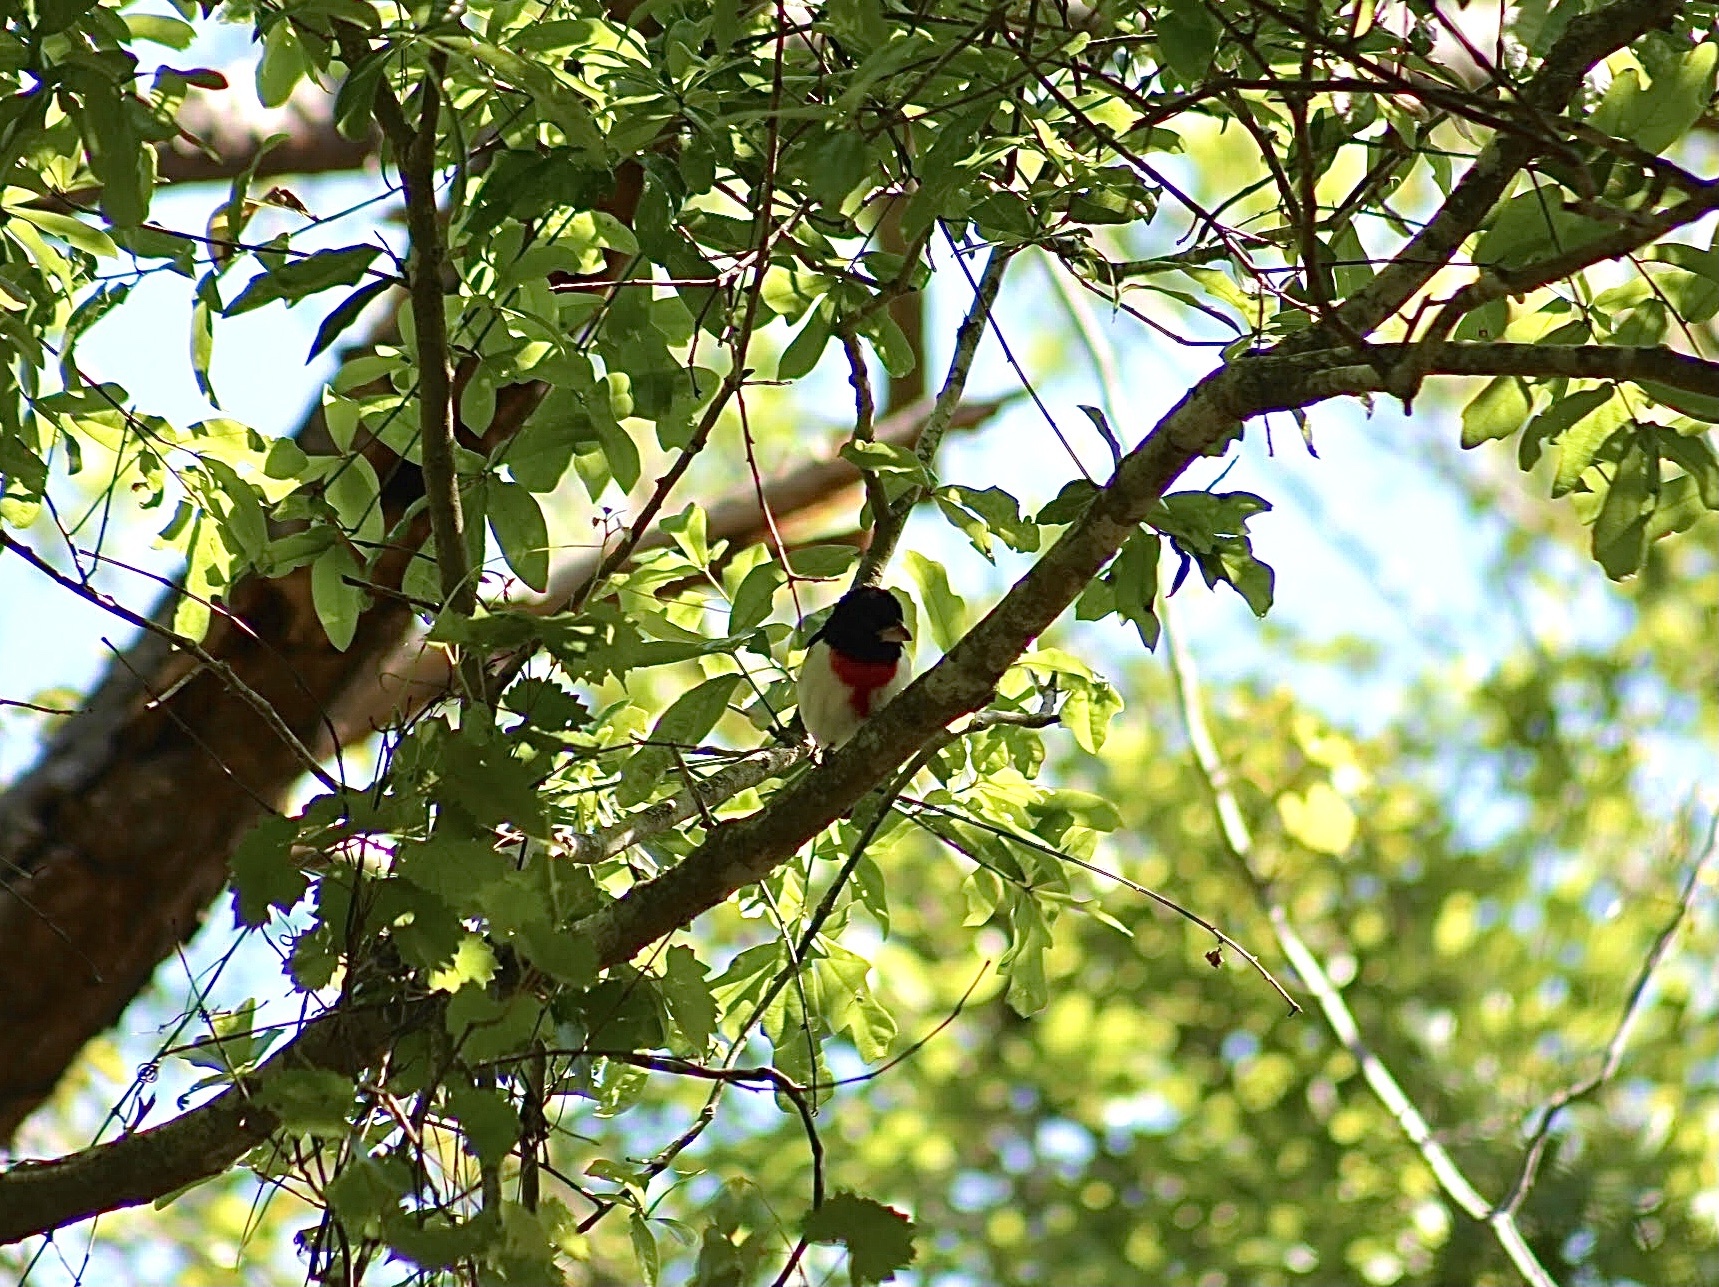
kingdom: Animalia
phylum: Chordata
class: Aves
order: Passeriformes
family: Cardinalidae
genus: Pheucticus
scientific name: Pheucticus ludovicianus
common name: Rose-breasted grosbeak
